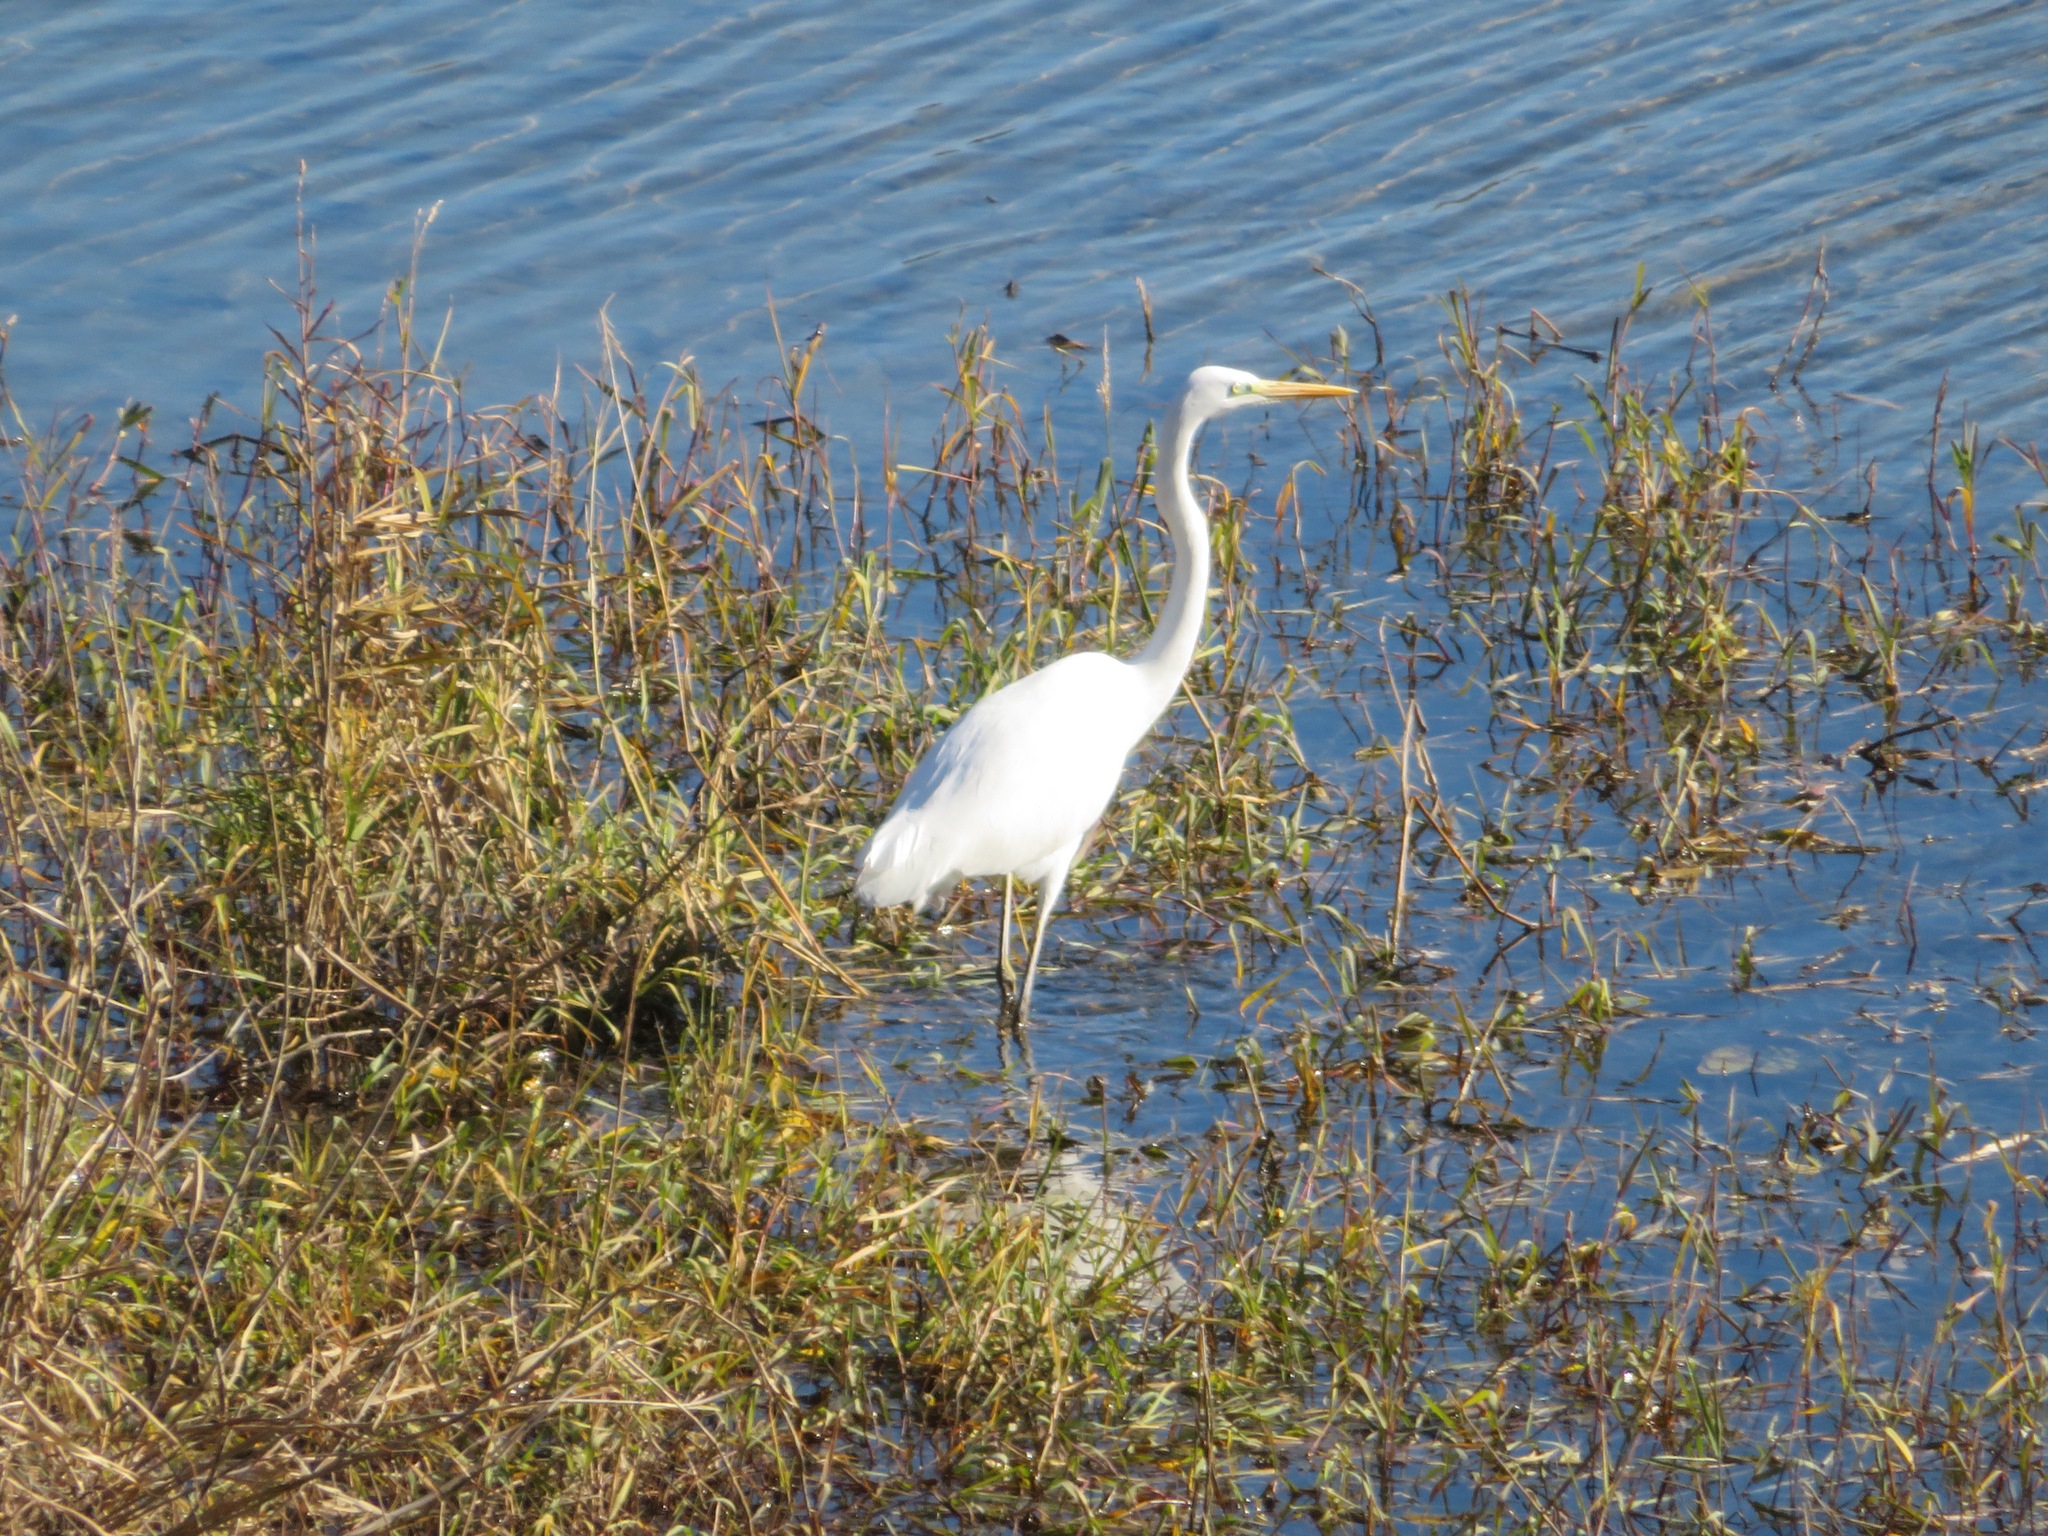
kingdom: Animalia
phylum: Chordata
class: Aves
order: Pelecaniformes
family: Ardeidae
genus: Ardea
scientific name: Ardea alba
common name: Great egret
